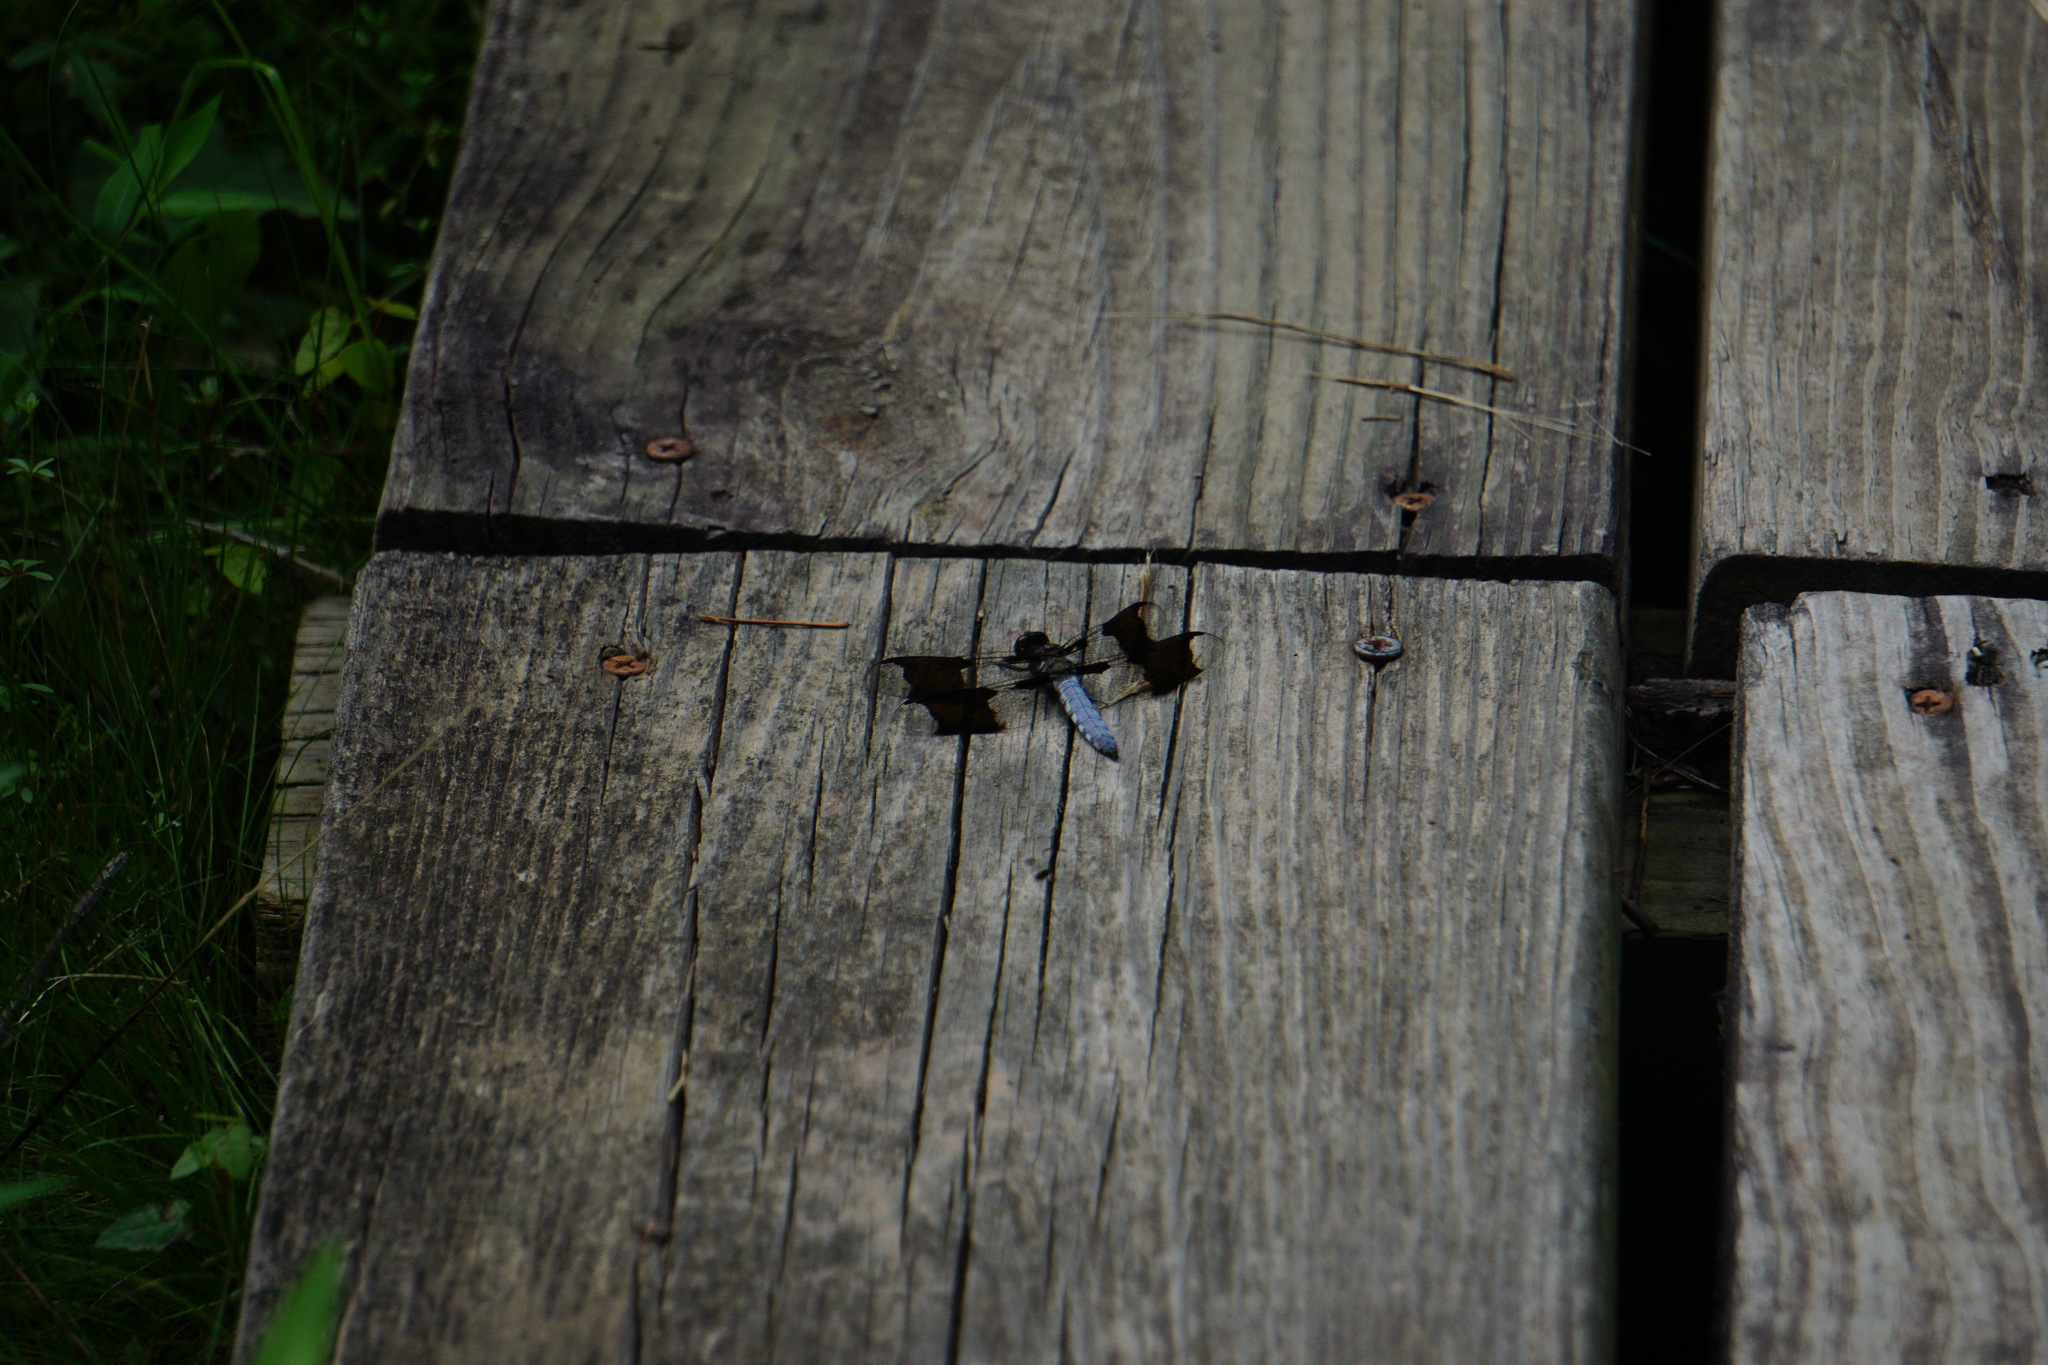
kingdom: Animalia
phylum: Arthropoda
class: Insecta
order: Odonata
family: Libellulidae
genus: Plathemis
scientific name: Plathemis lydia
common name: Common whitetail
